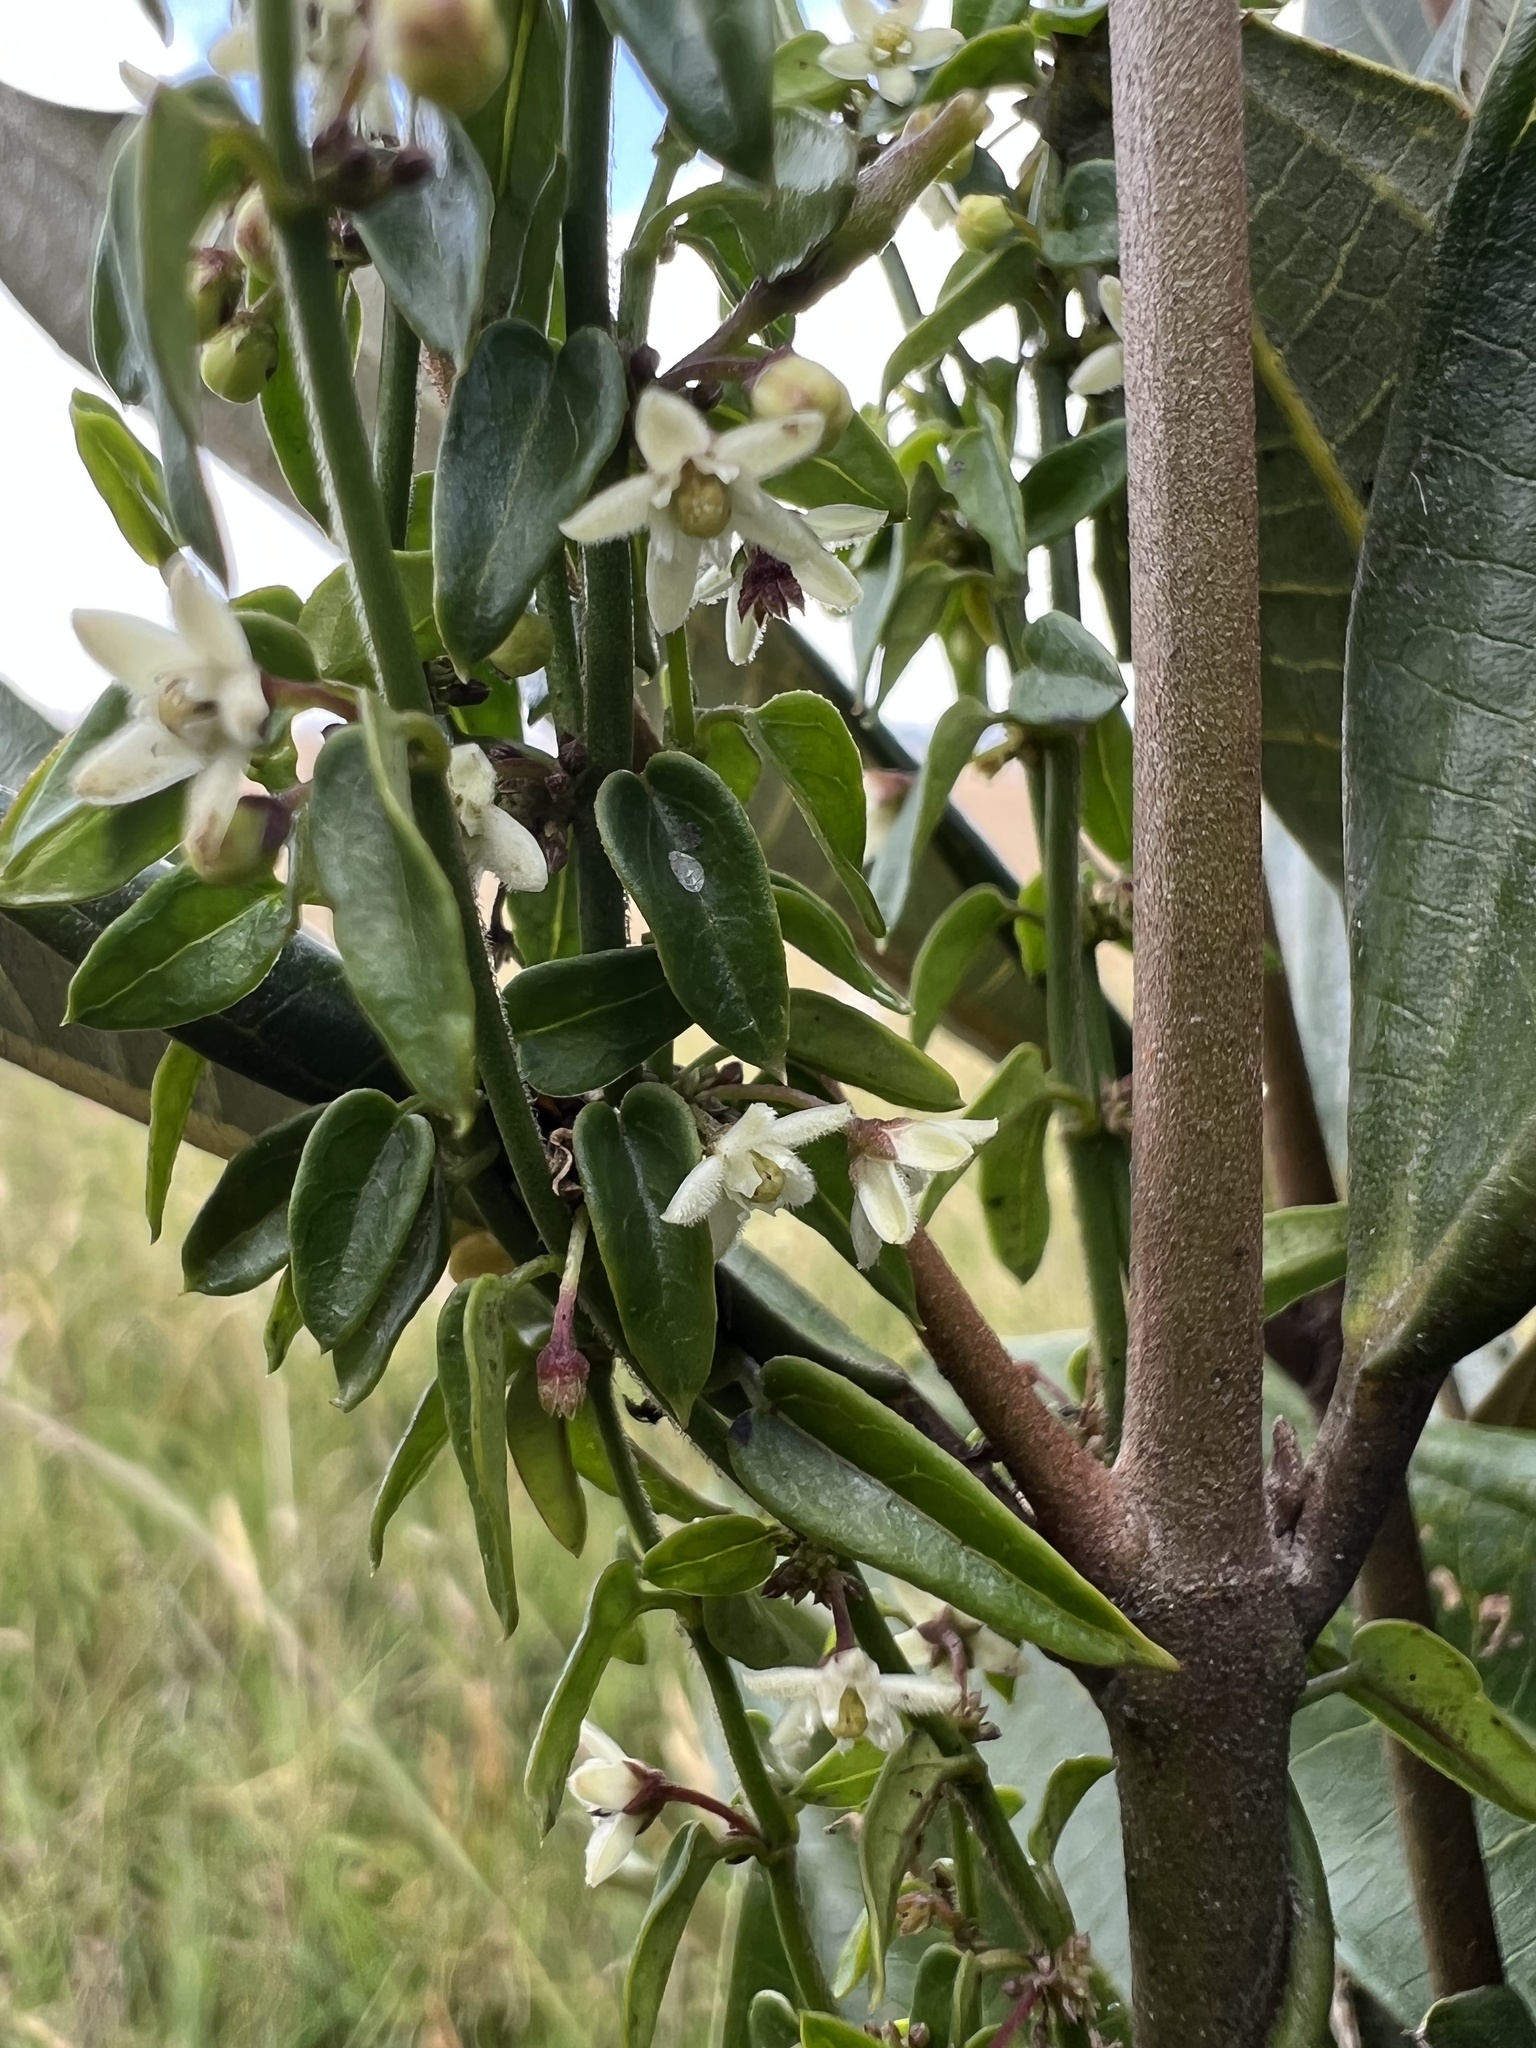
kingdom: Plantae
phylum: Tracheophyta
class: Magnoliopsida
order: Gentianales
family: Apocynaceae
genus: Scyphostelma
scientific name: Scyphostelma tenellum
